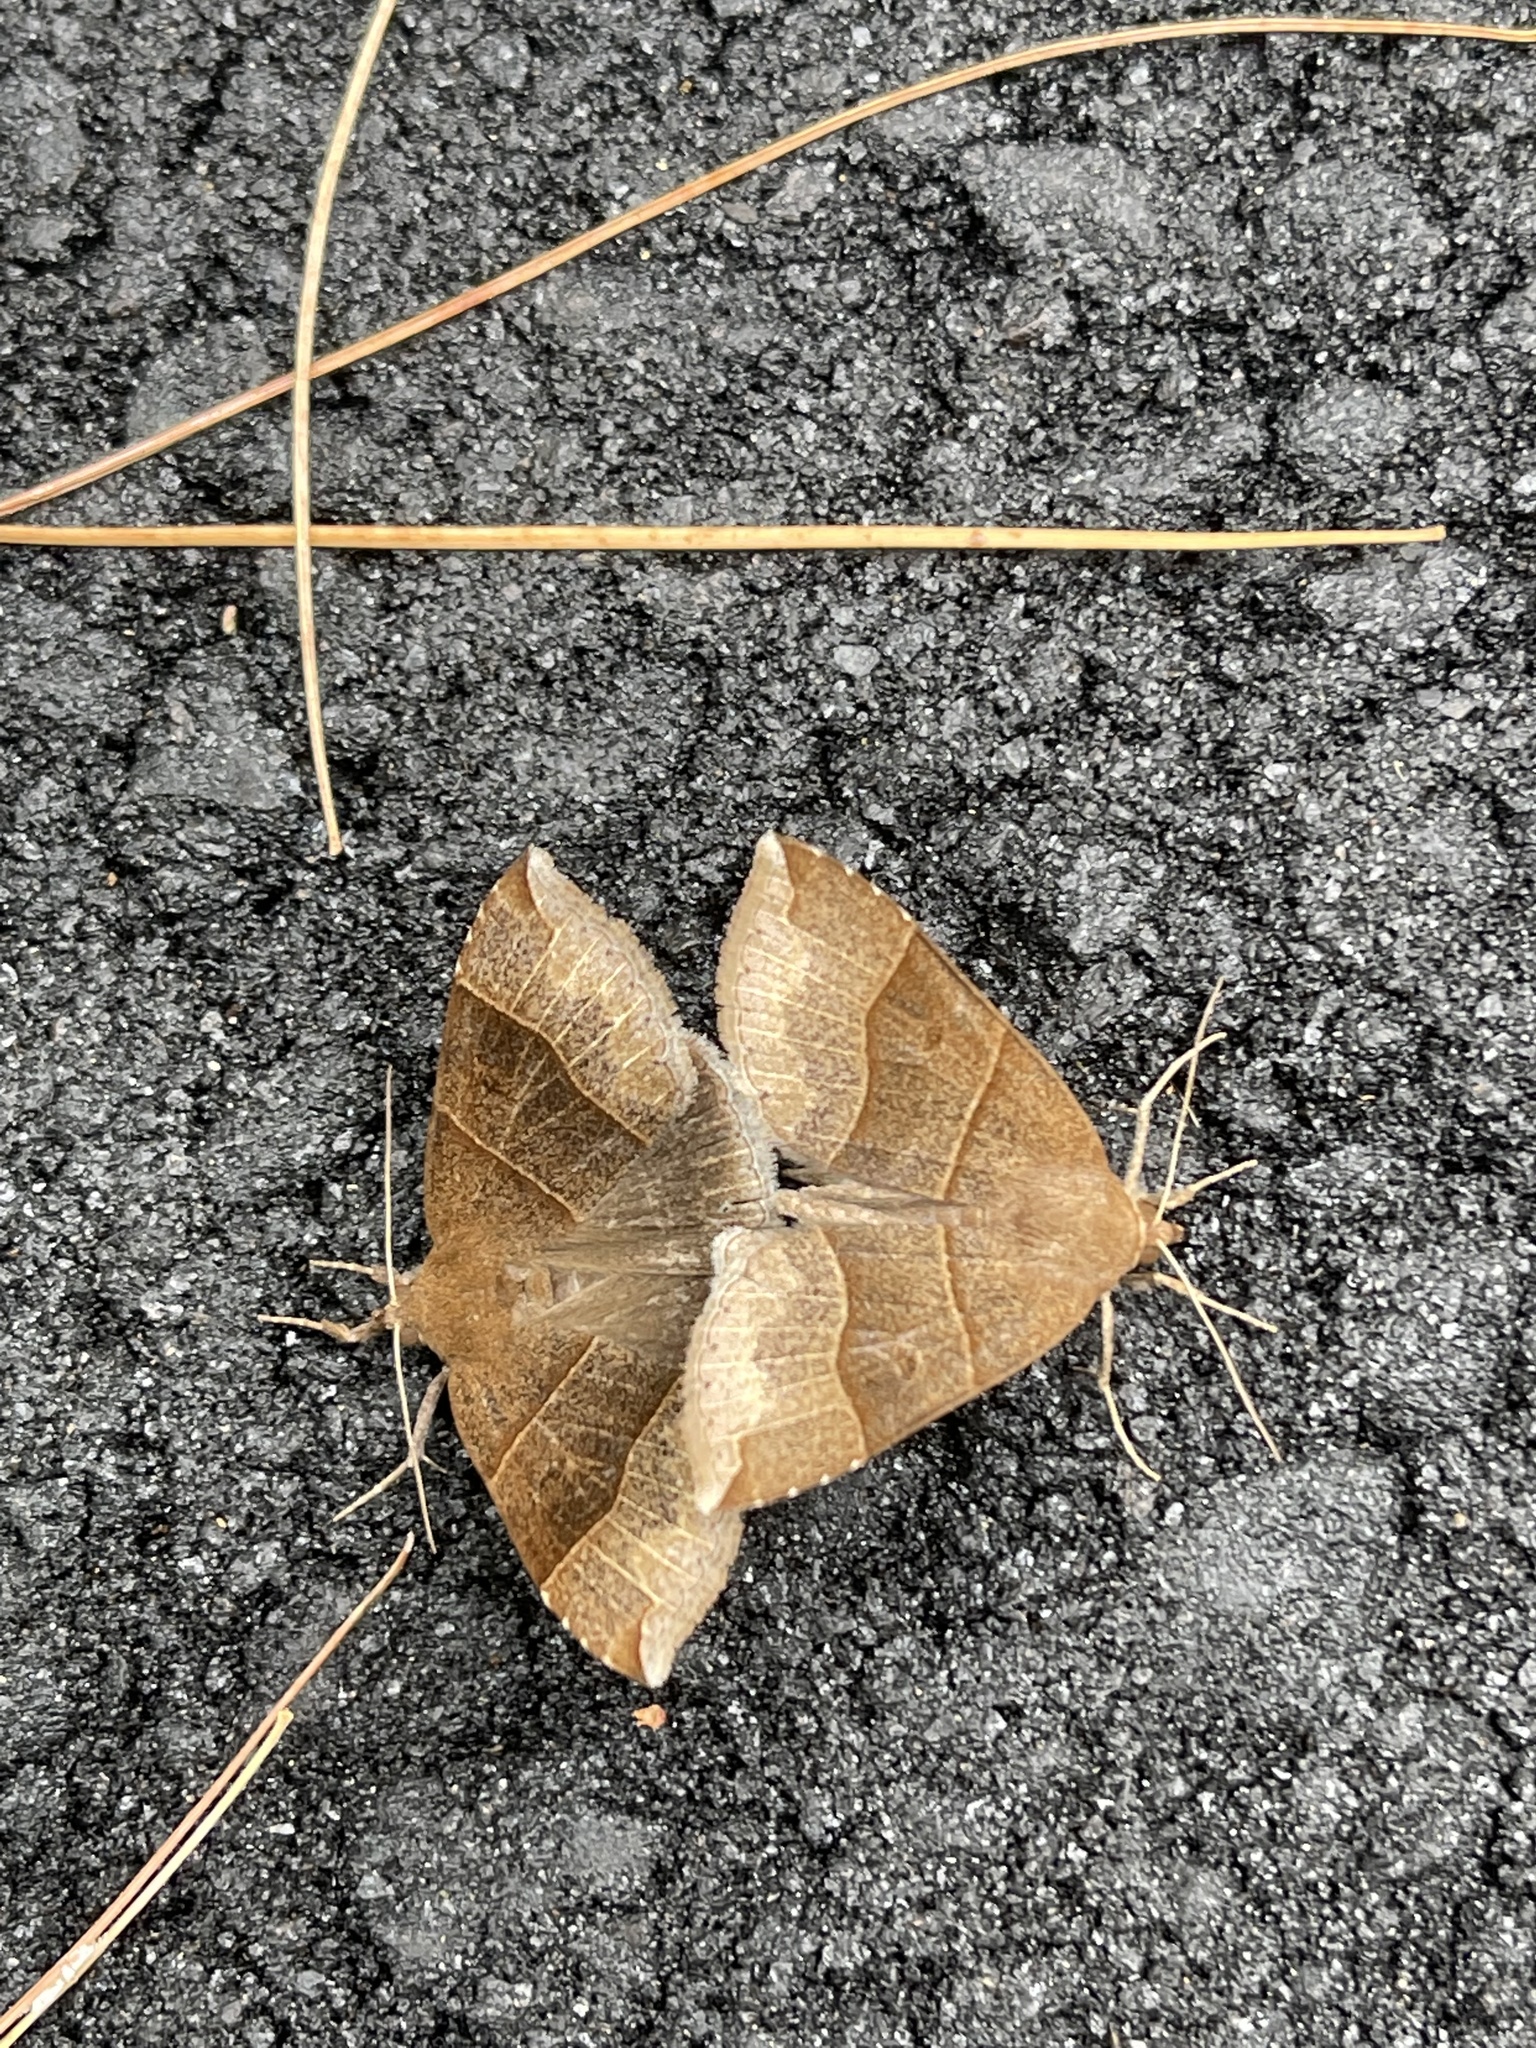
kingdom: Animalia
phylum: Arthropoda
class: Insecta
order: Lepidoptera
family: Erebidae
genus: Parallelia
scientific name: Parallelia bistriaris
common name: Maple looper moth
